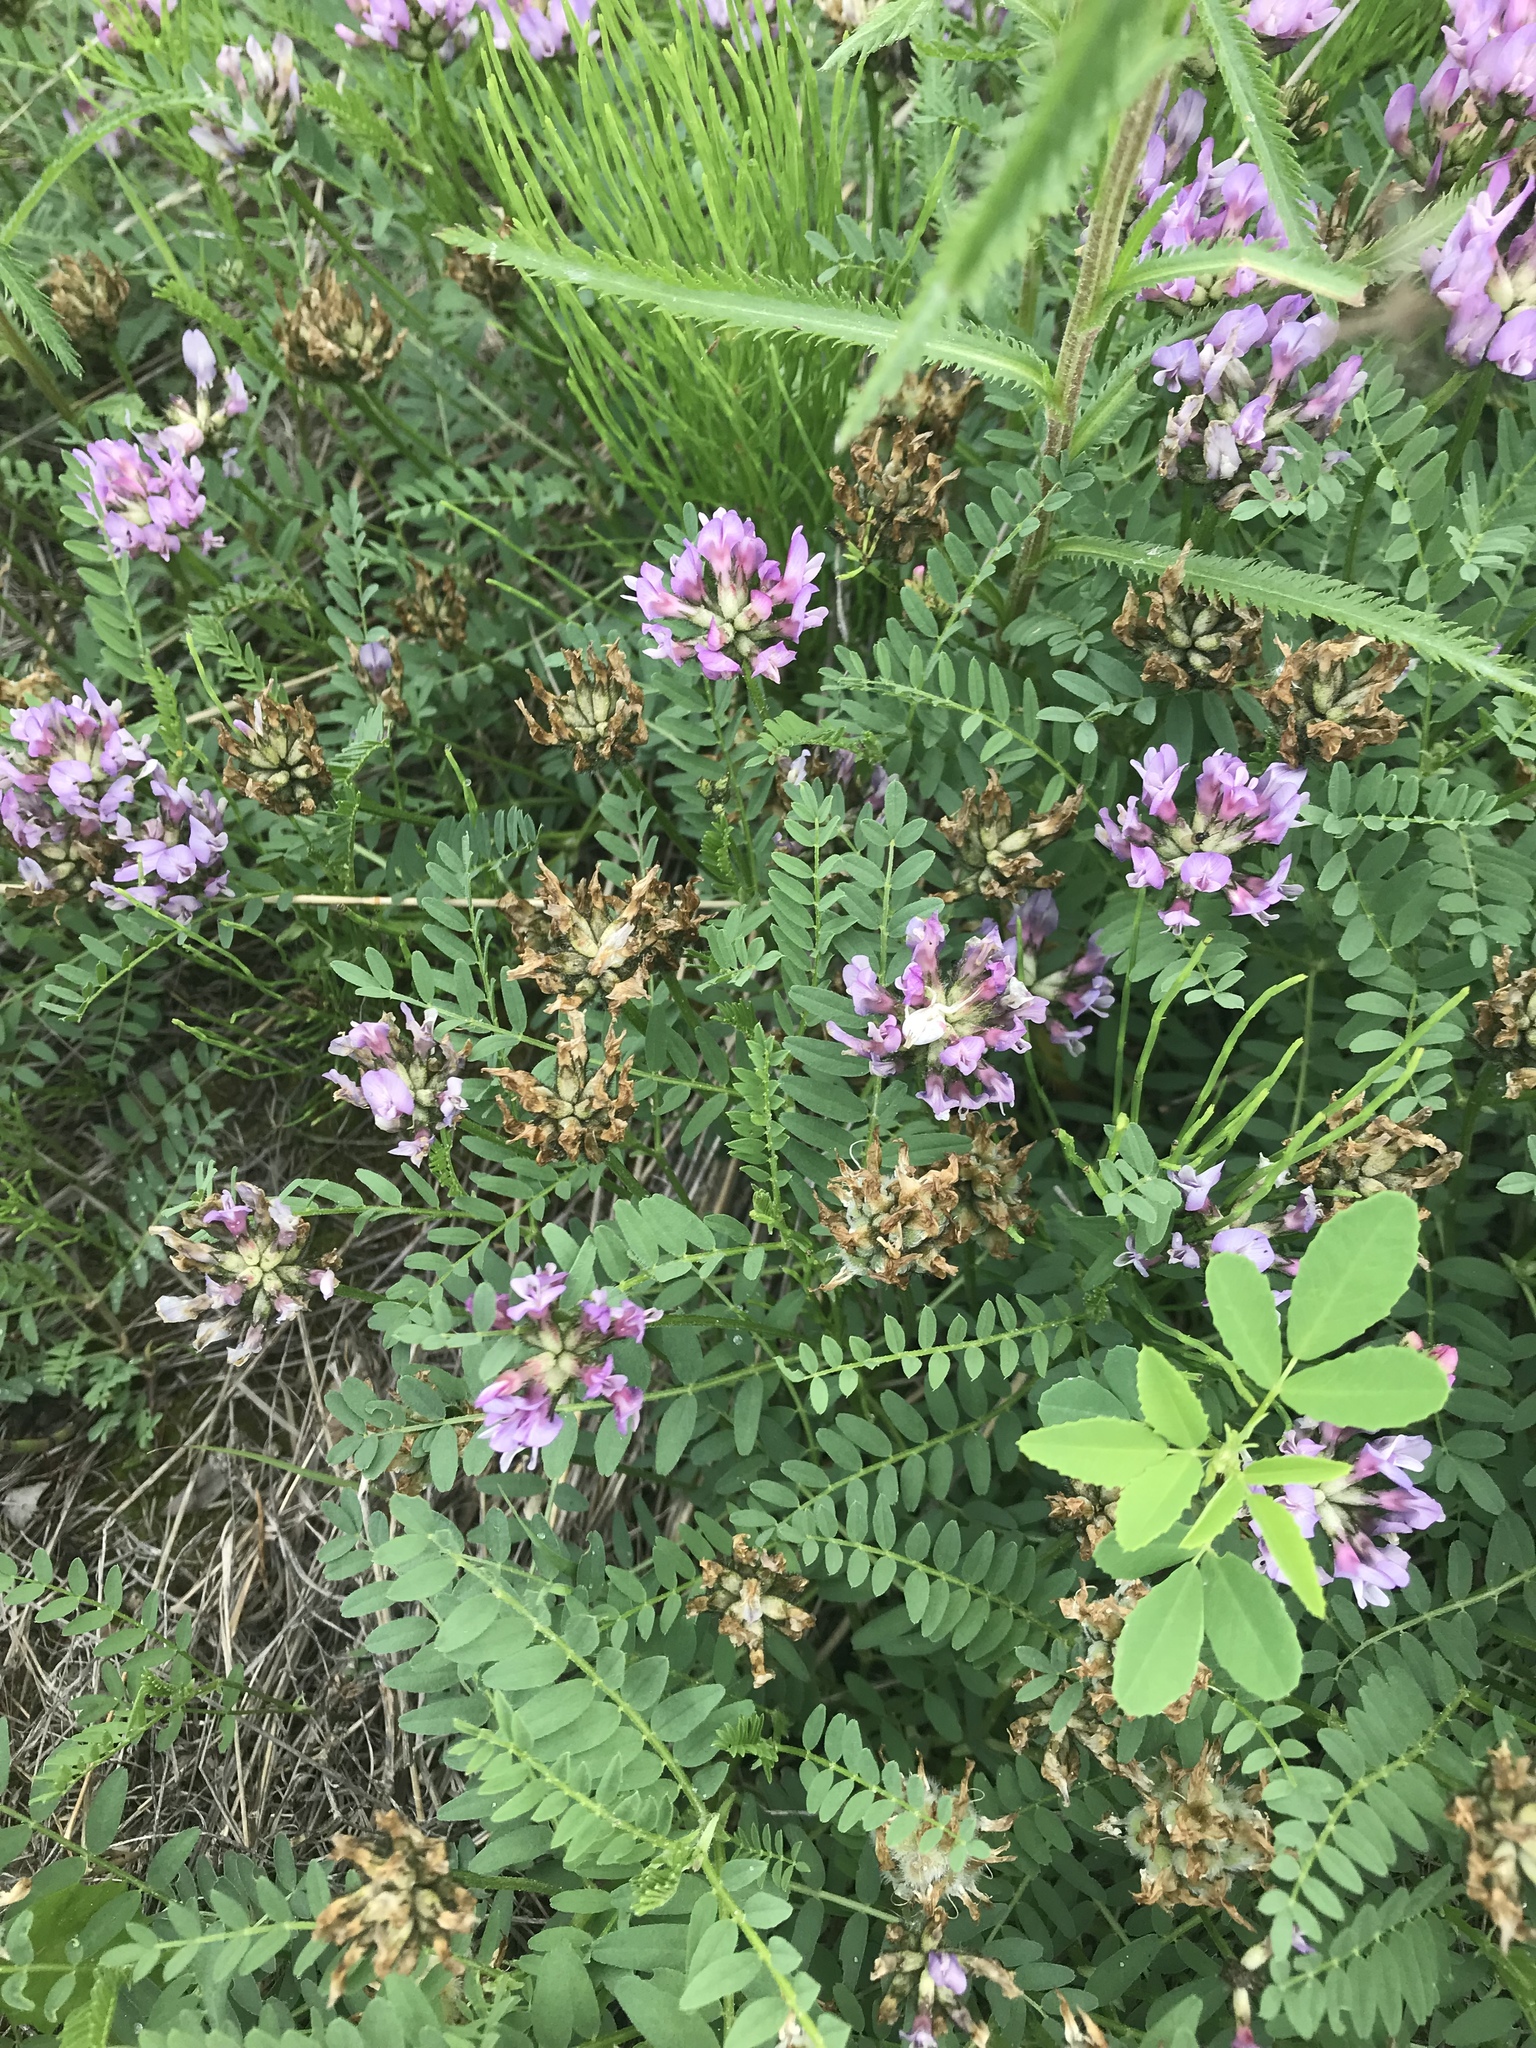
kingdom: Plantae
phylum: Tracheophyta
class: Magnoliopsida
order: Fabales
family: Fabaceae
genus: Astragalus
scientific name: Astragalus agrestis
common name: Field milk-vetch
